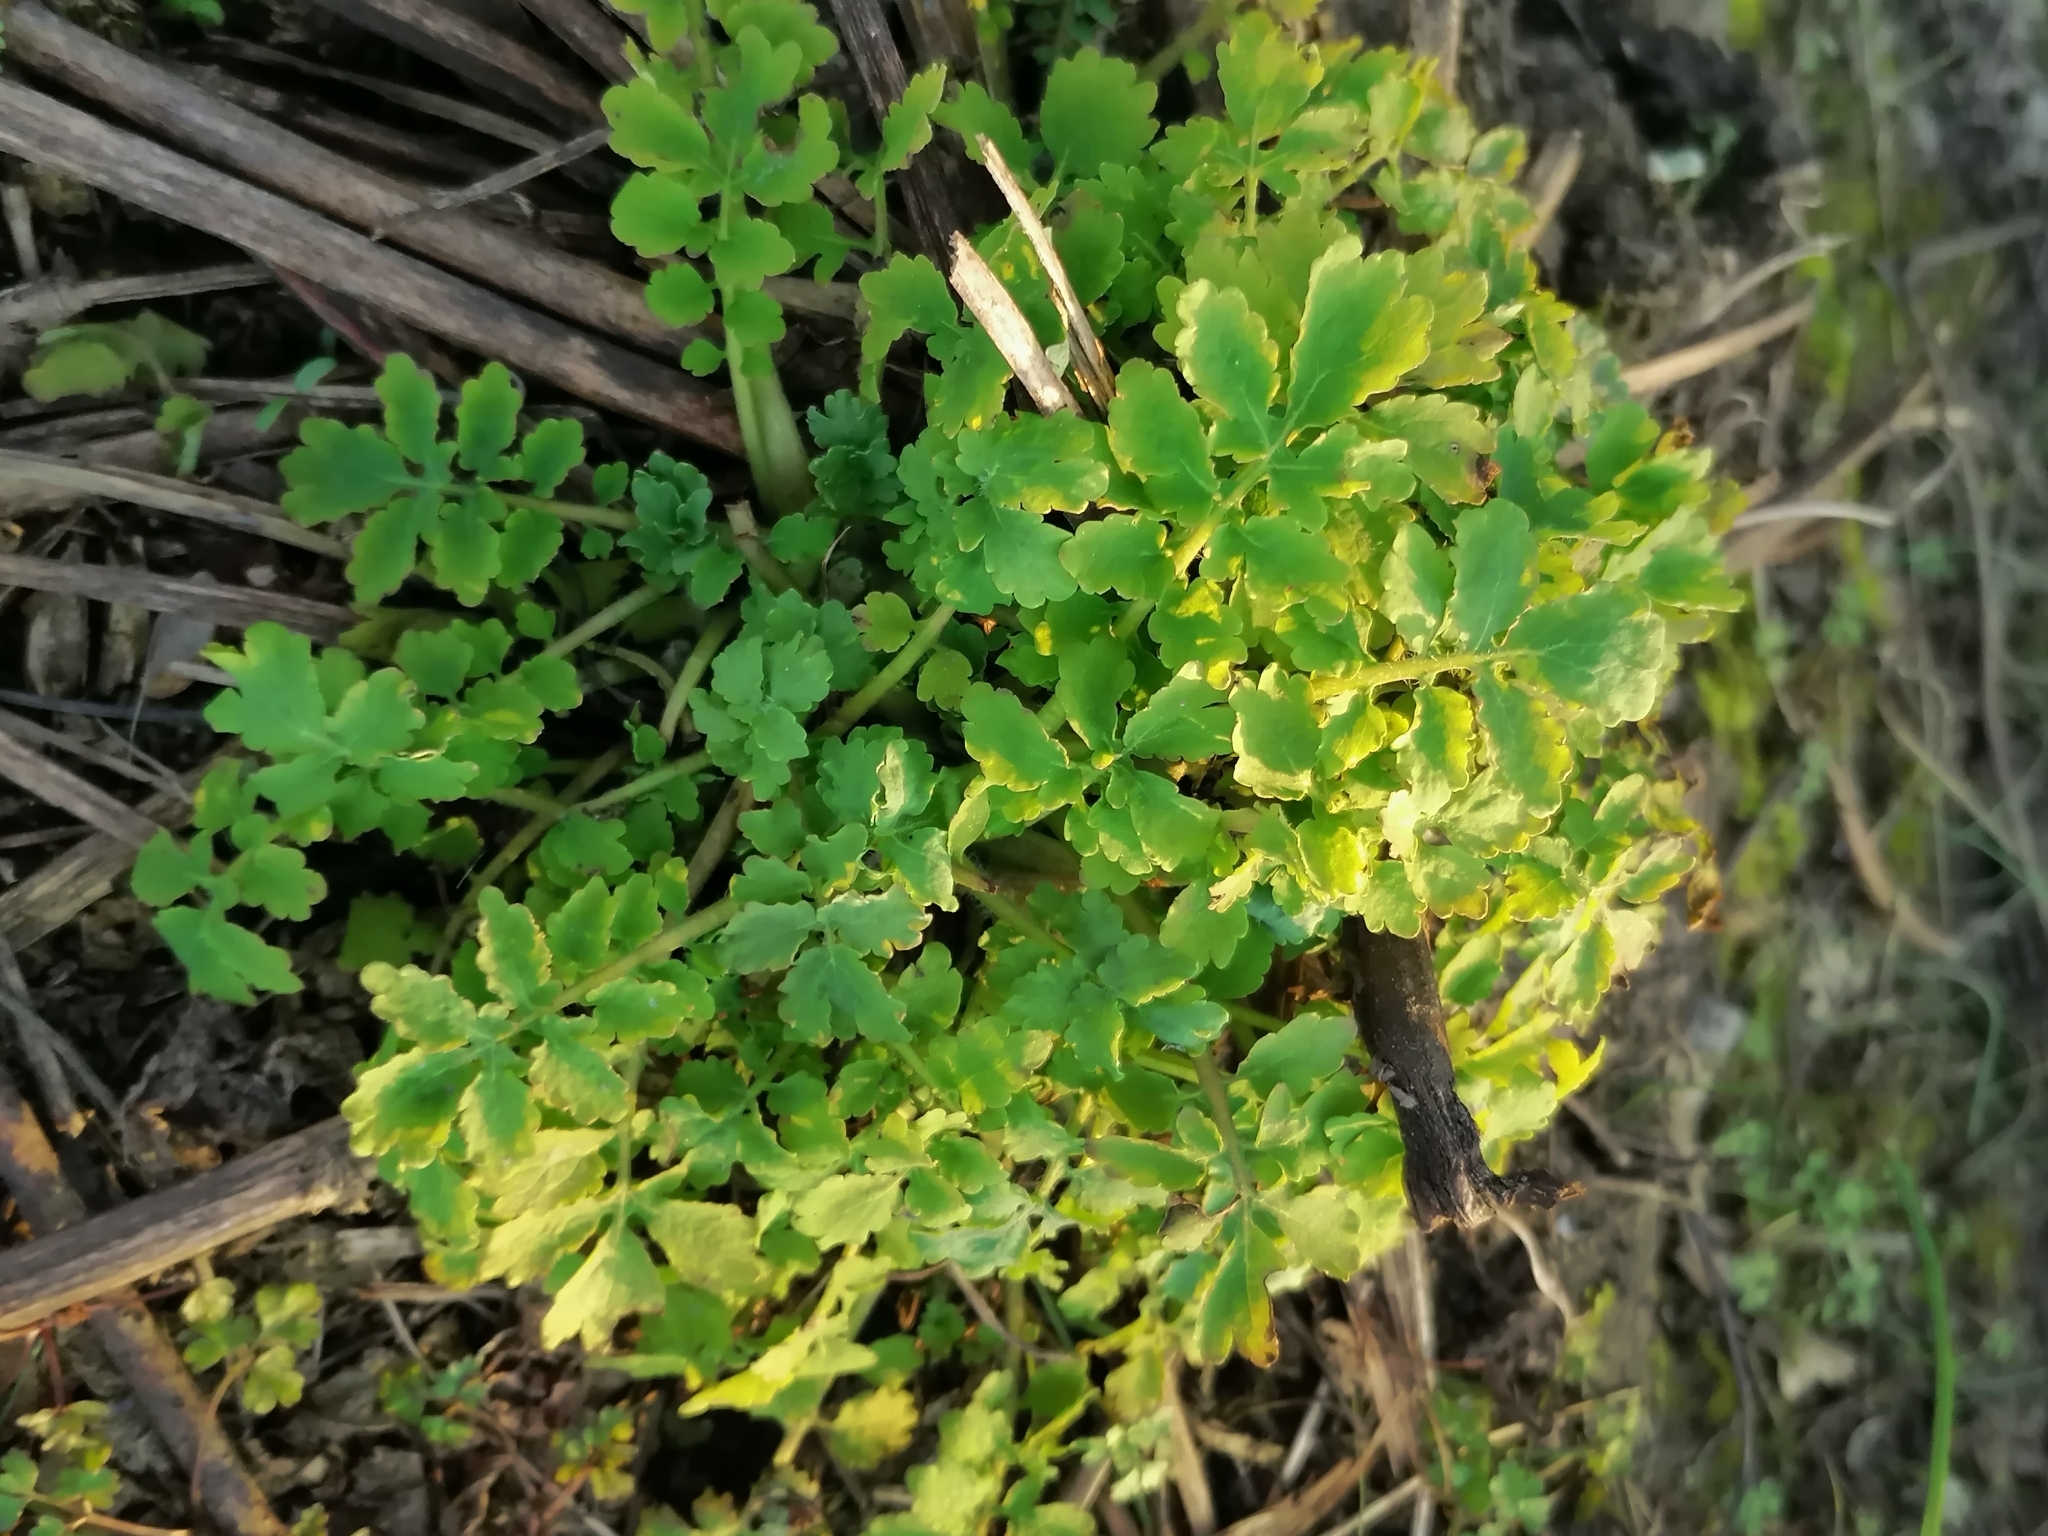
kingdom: Plantae
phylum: Tracheophyta
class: Magnoliopsida
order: Ranunculales
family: Papaveraceae
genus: Chelidonium
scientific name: Chelidonium majus
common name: Greater celandine
